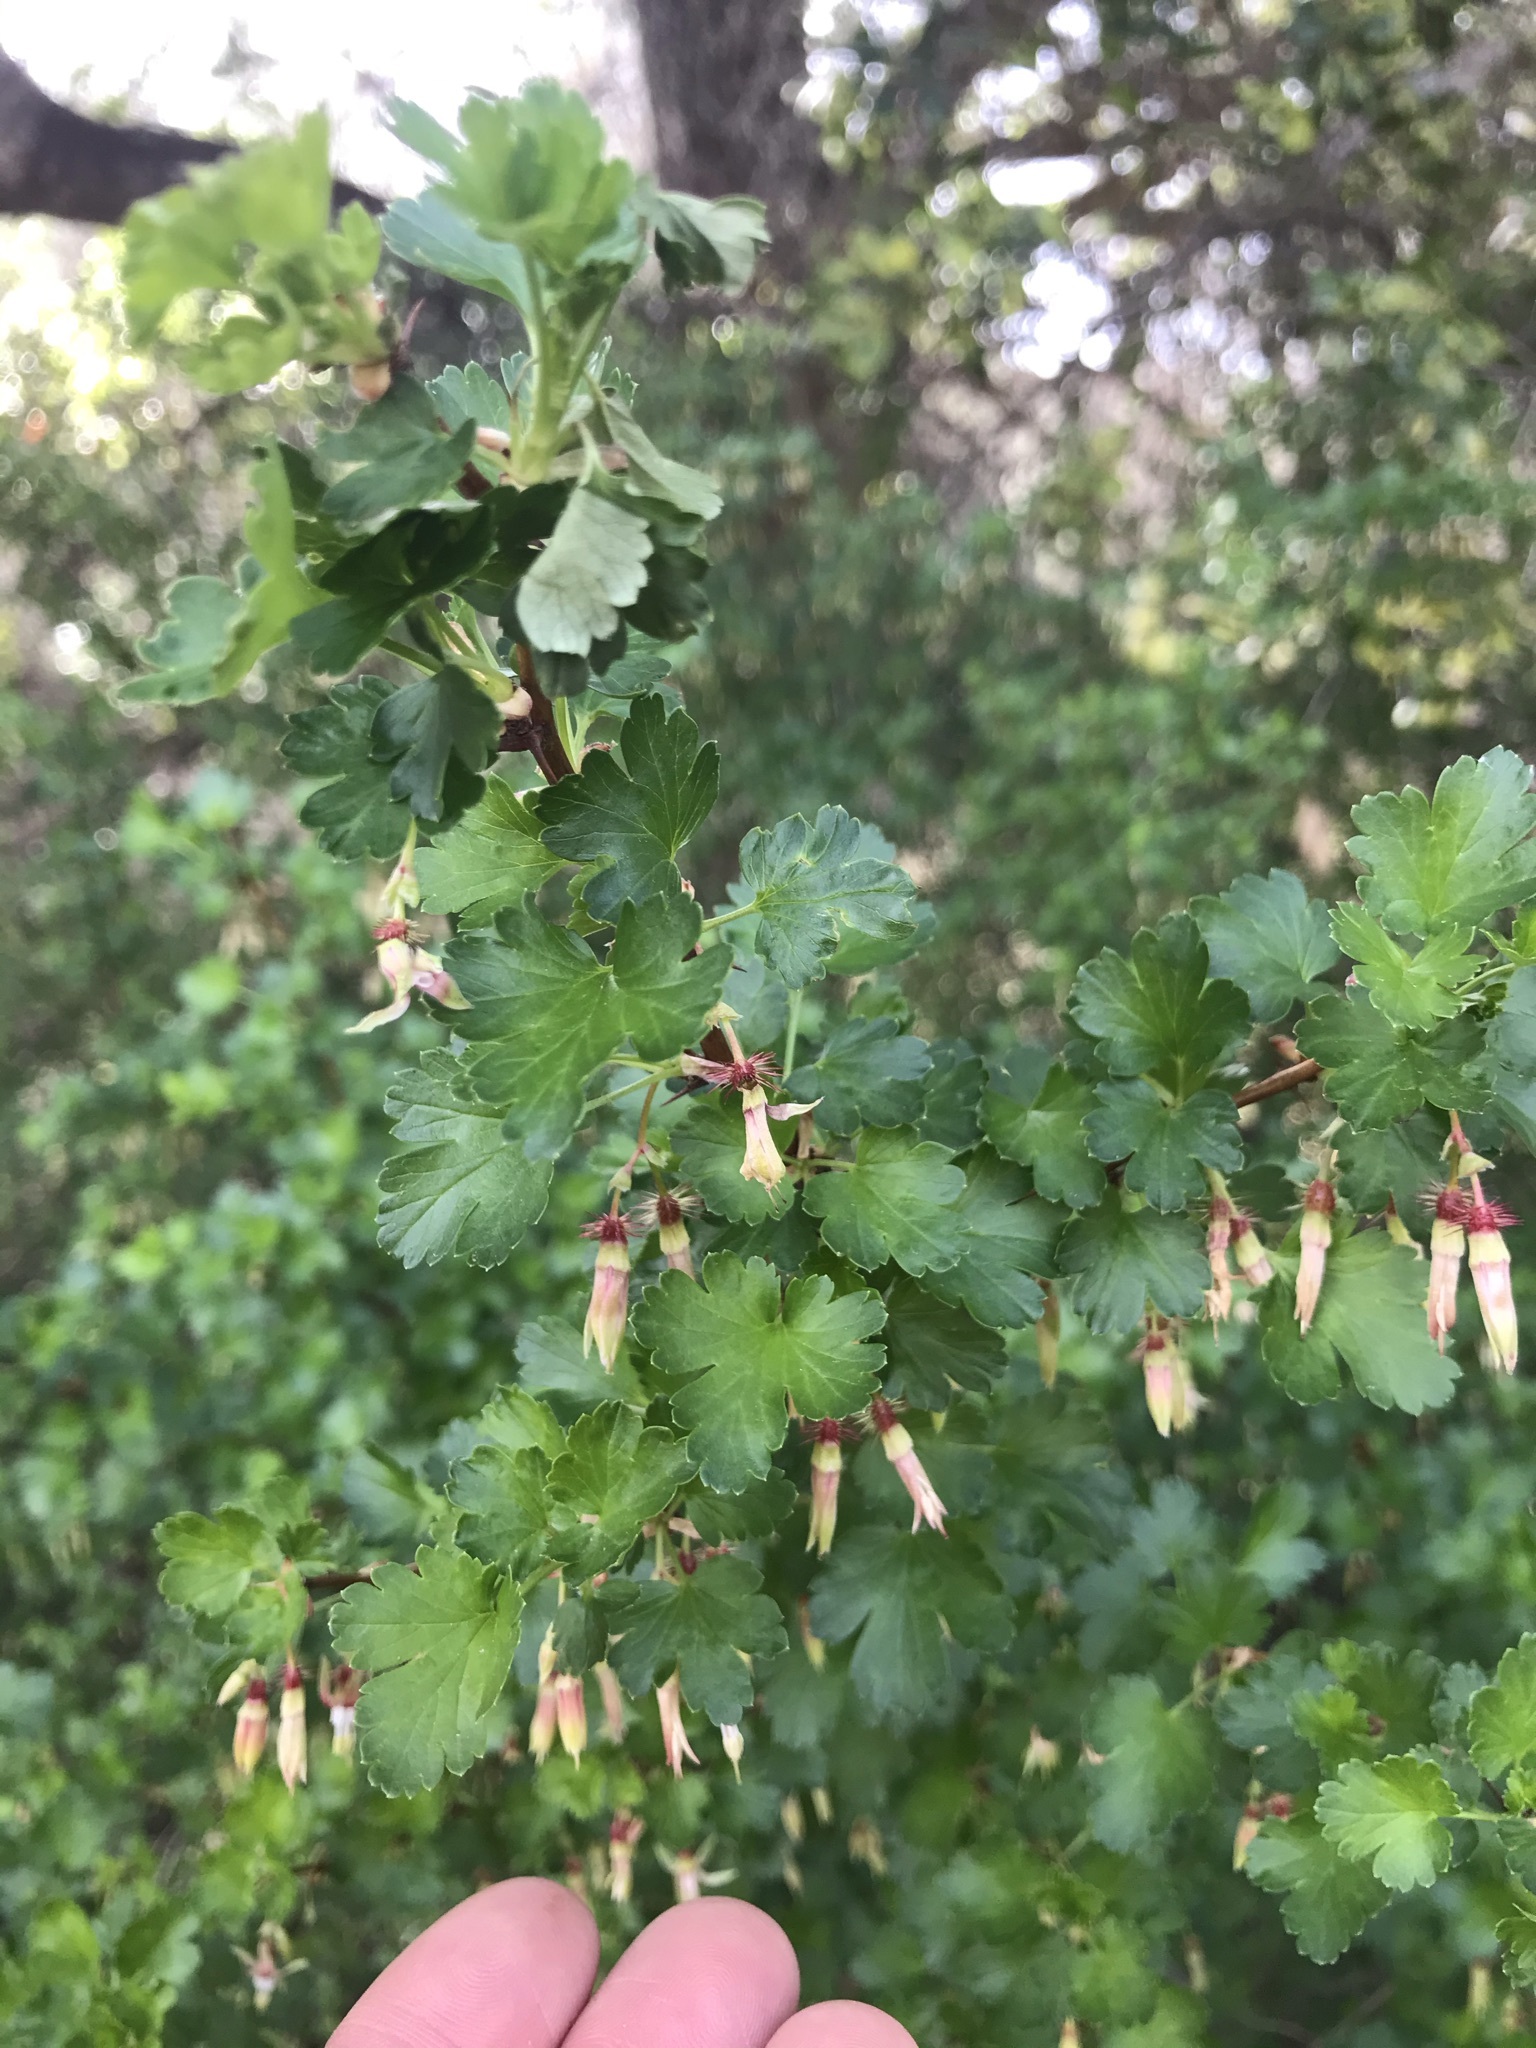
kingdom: Plantae
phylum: Tracheophyta
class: Magnoliopsida
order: Saxifragales
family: Grossulariaceae
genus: Ribes
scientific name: Ribes californicum
